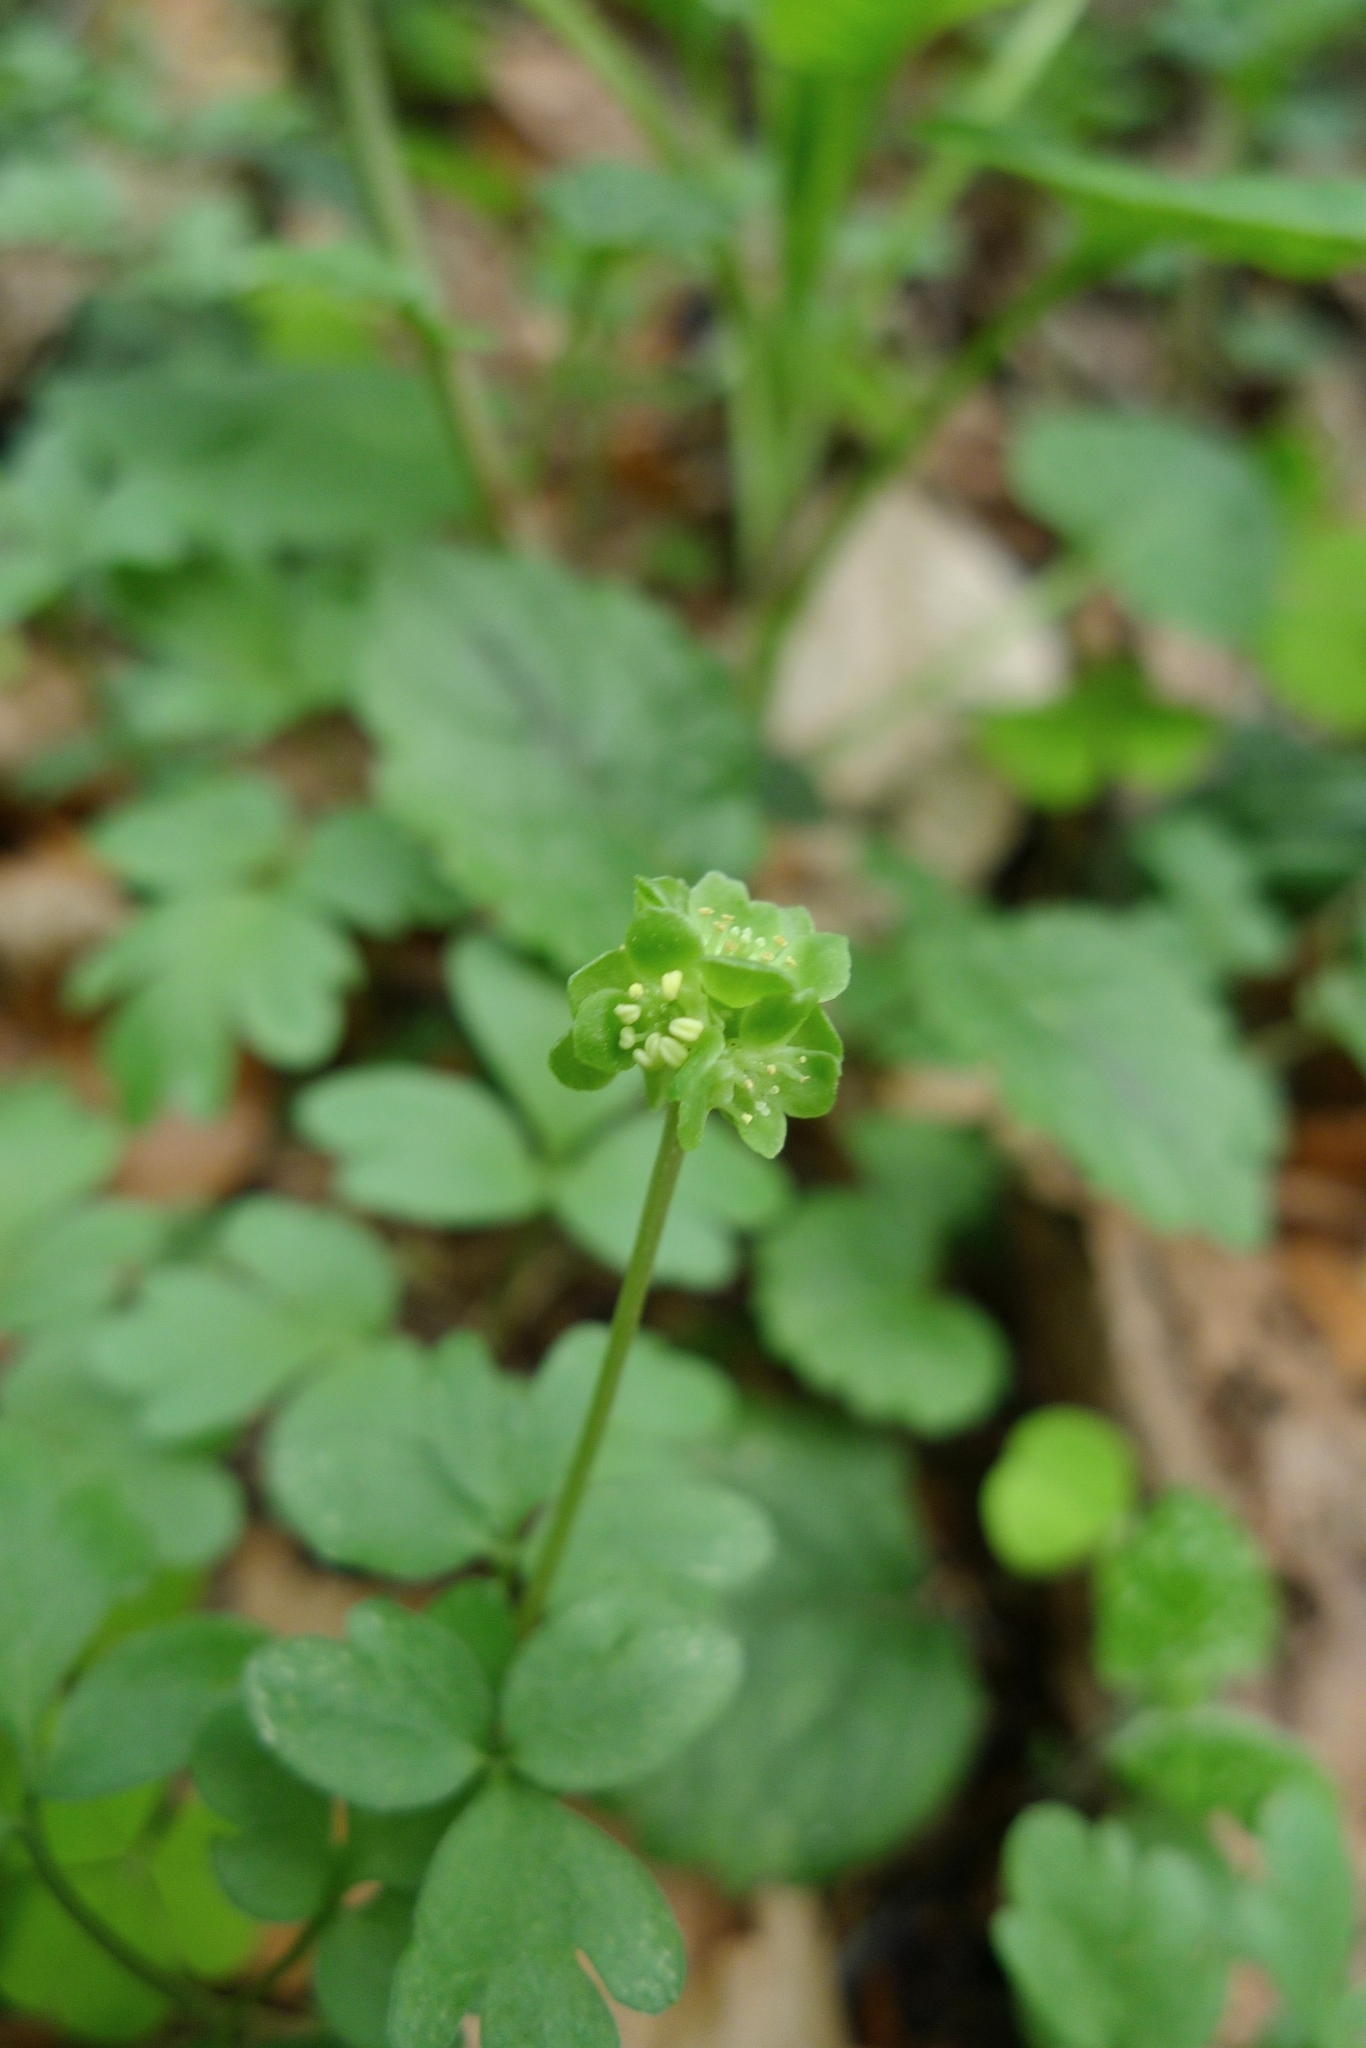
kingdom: Plantae
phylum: Tracheophyta
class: Magnoliopsida
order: Dipsacales
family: Viburnaceae
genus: Adoxa
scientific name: Adoxa moschatellina
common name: Moschatel
